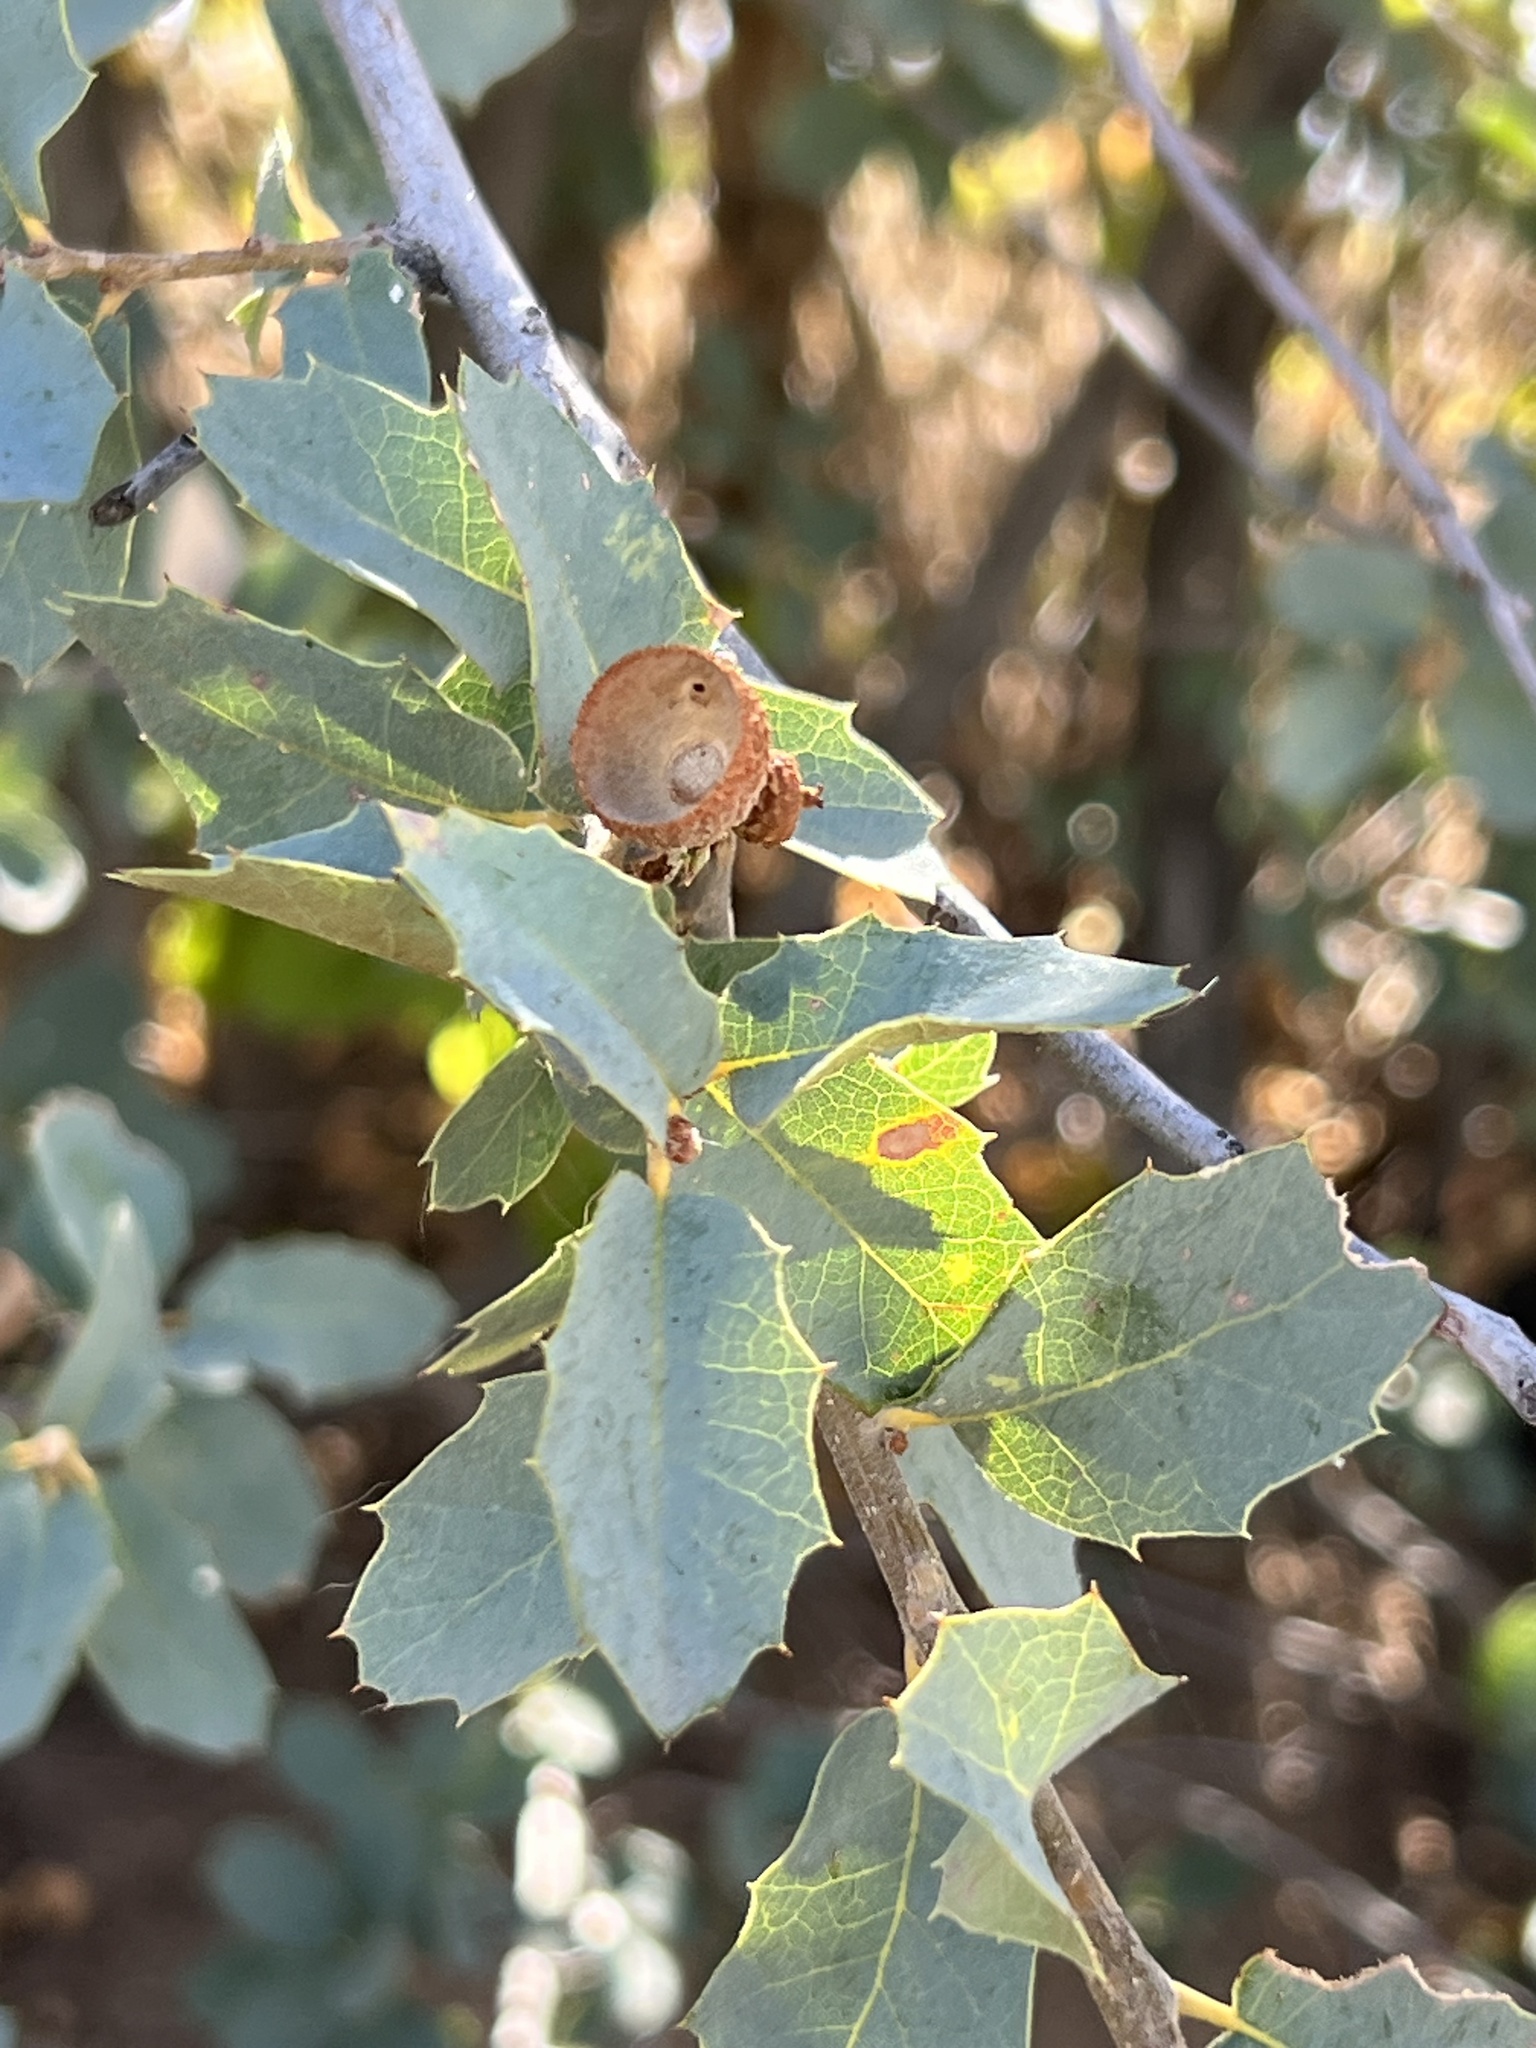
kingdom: Plantae
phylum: Tracheophyta
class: Magnoliopsida
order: Fagales
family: Fagaceae
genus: Quercus
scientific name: Quercus turbinella
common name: Sonoran scrub oak
